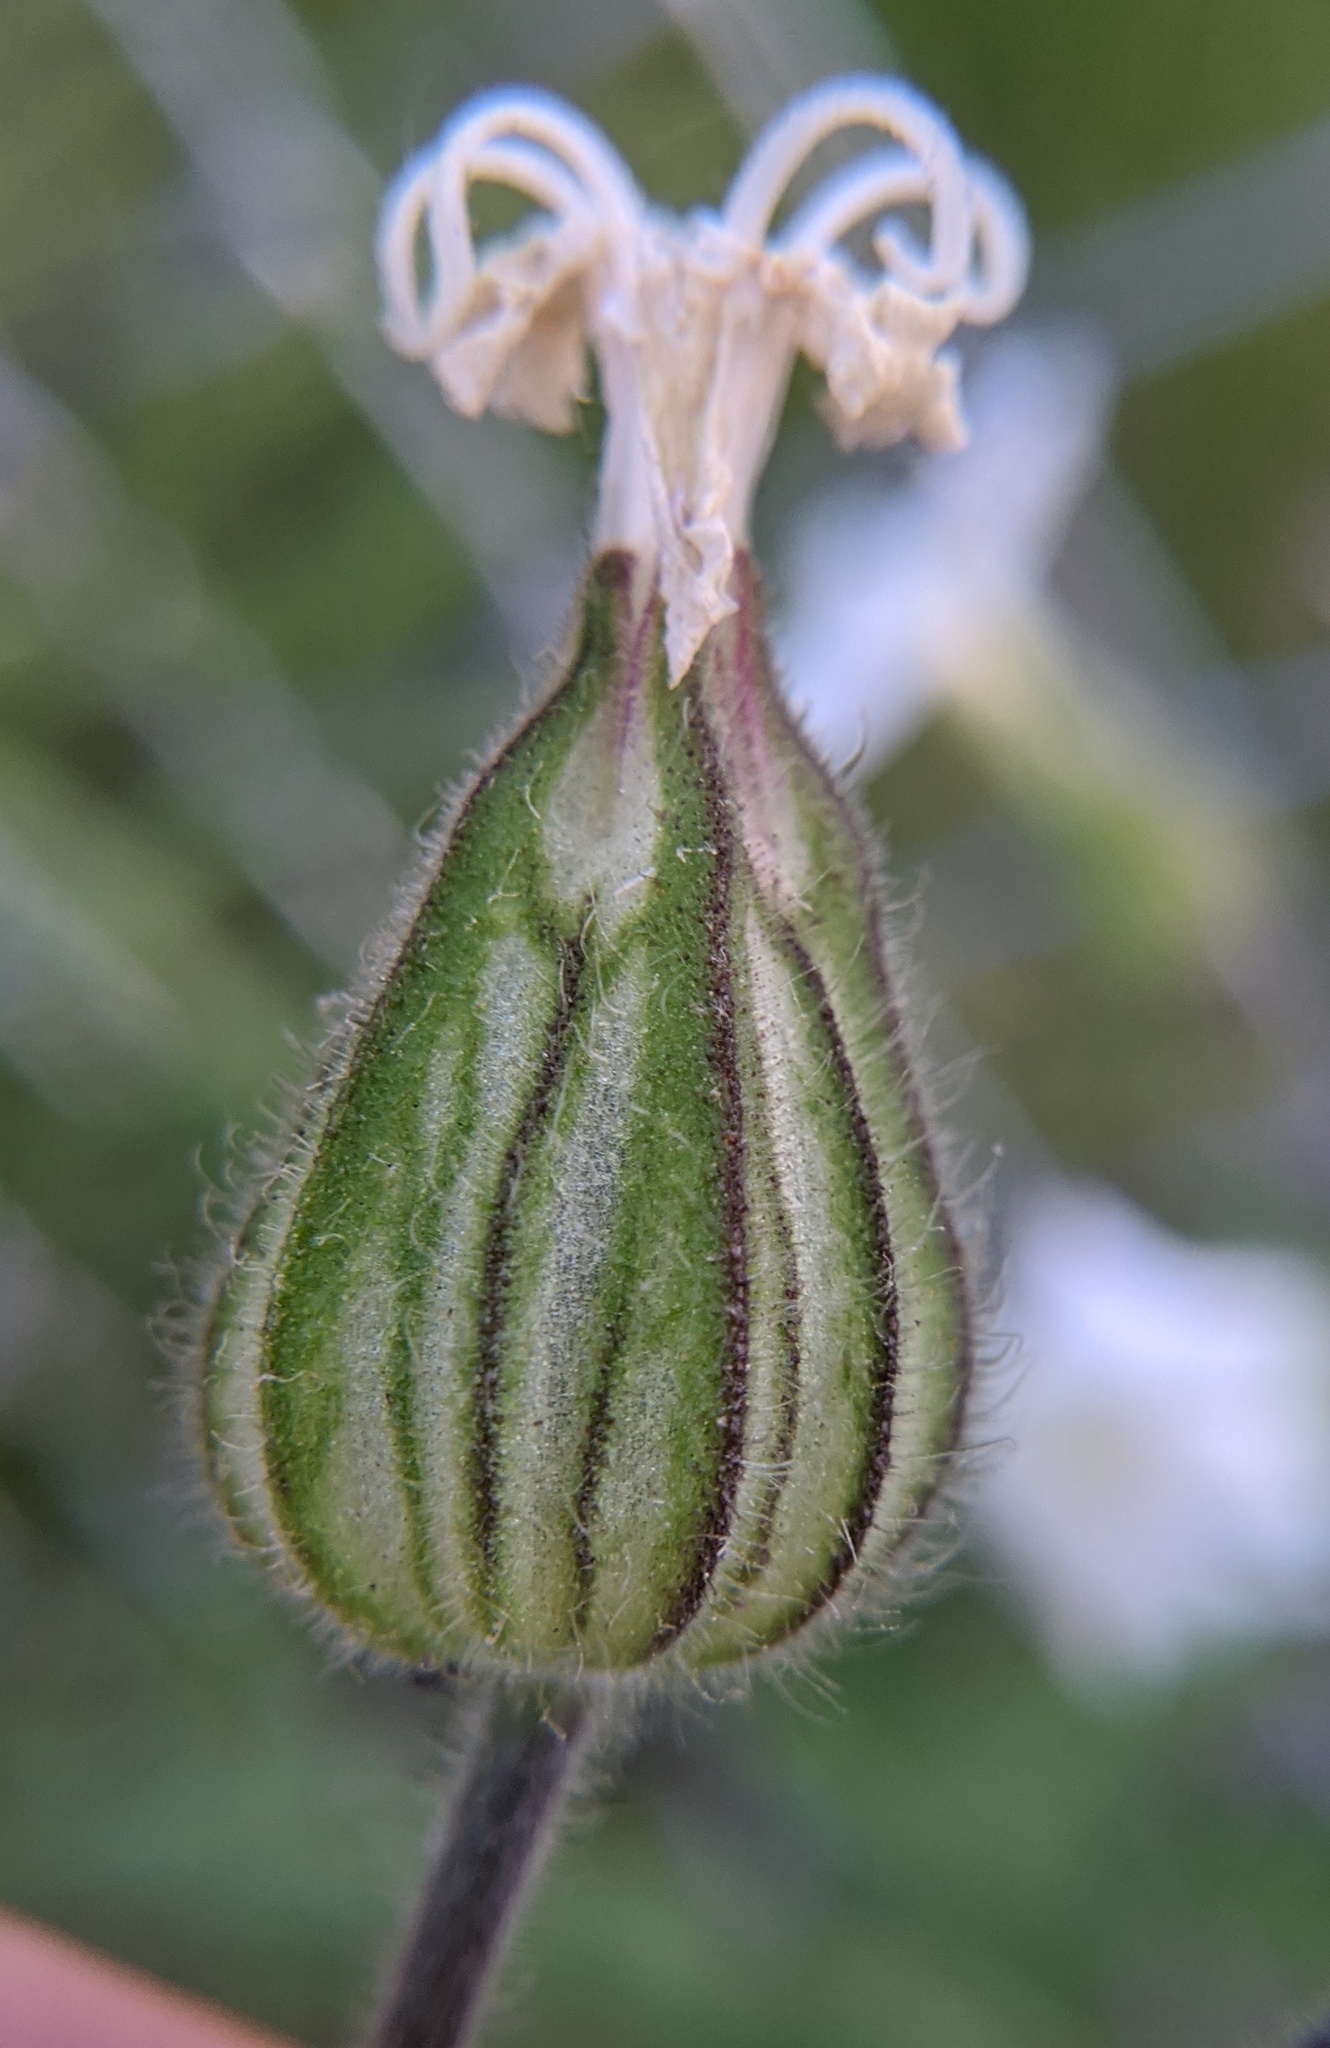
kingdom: Plantae
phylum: Tracheophyta
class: Magnoliopsida
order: Caryophyllales
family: Caryophyllaceae
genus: Silene
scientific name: Silene latifolia
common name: White campion
